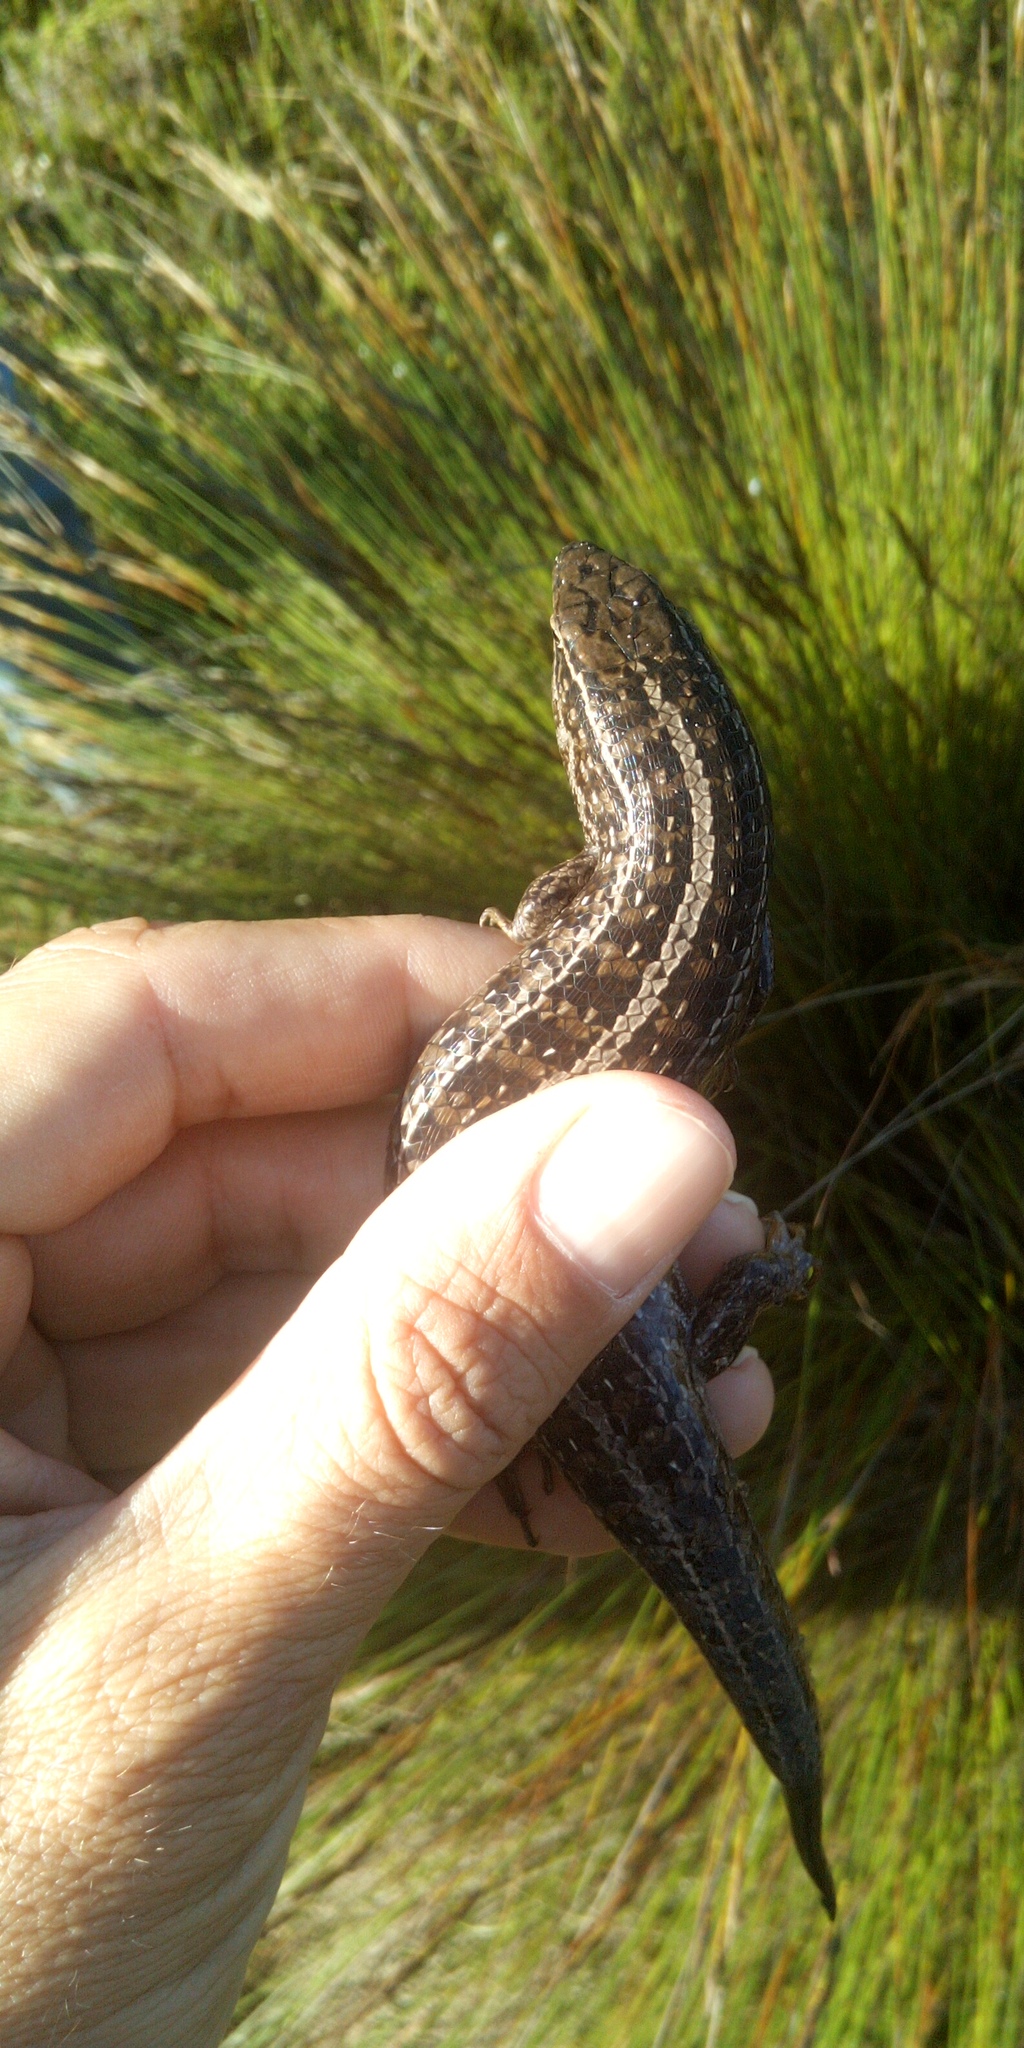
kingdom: Animalia
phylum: Chordata
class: Squamata
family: Scincidae
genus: Trachylepis
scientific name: Trachylepis capensis
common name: Cape skink
